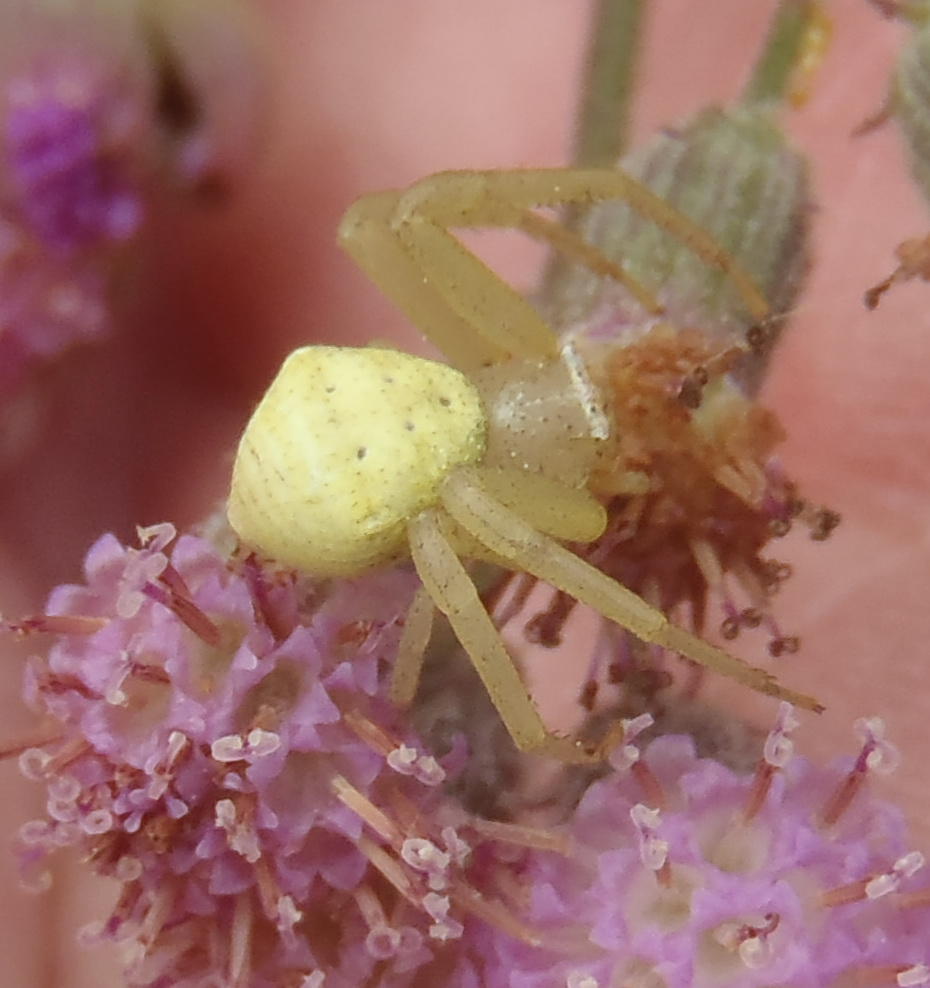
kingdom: Animalia
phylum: Arthropoda
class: Arachnida
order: Araneae
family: Thomisidae
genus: Thomisus
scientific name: Thomisus daradioides
